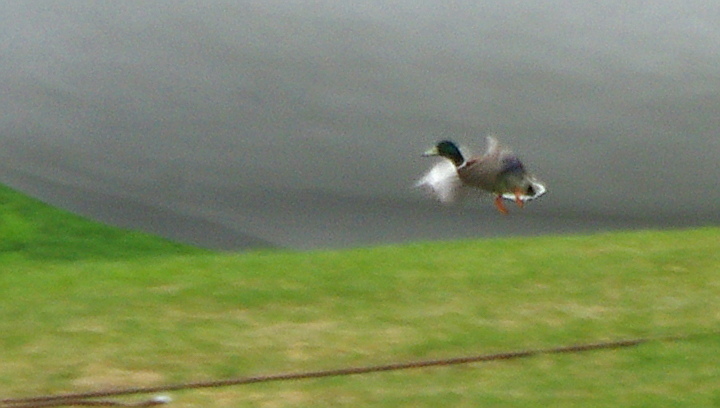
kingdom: Animalia
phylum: Chordata
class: Aves
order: Anseriformes
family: Anatidae
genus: Anas
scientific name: Anas platyrhynchos
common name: Mallard
